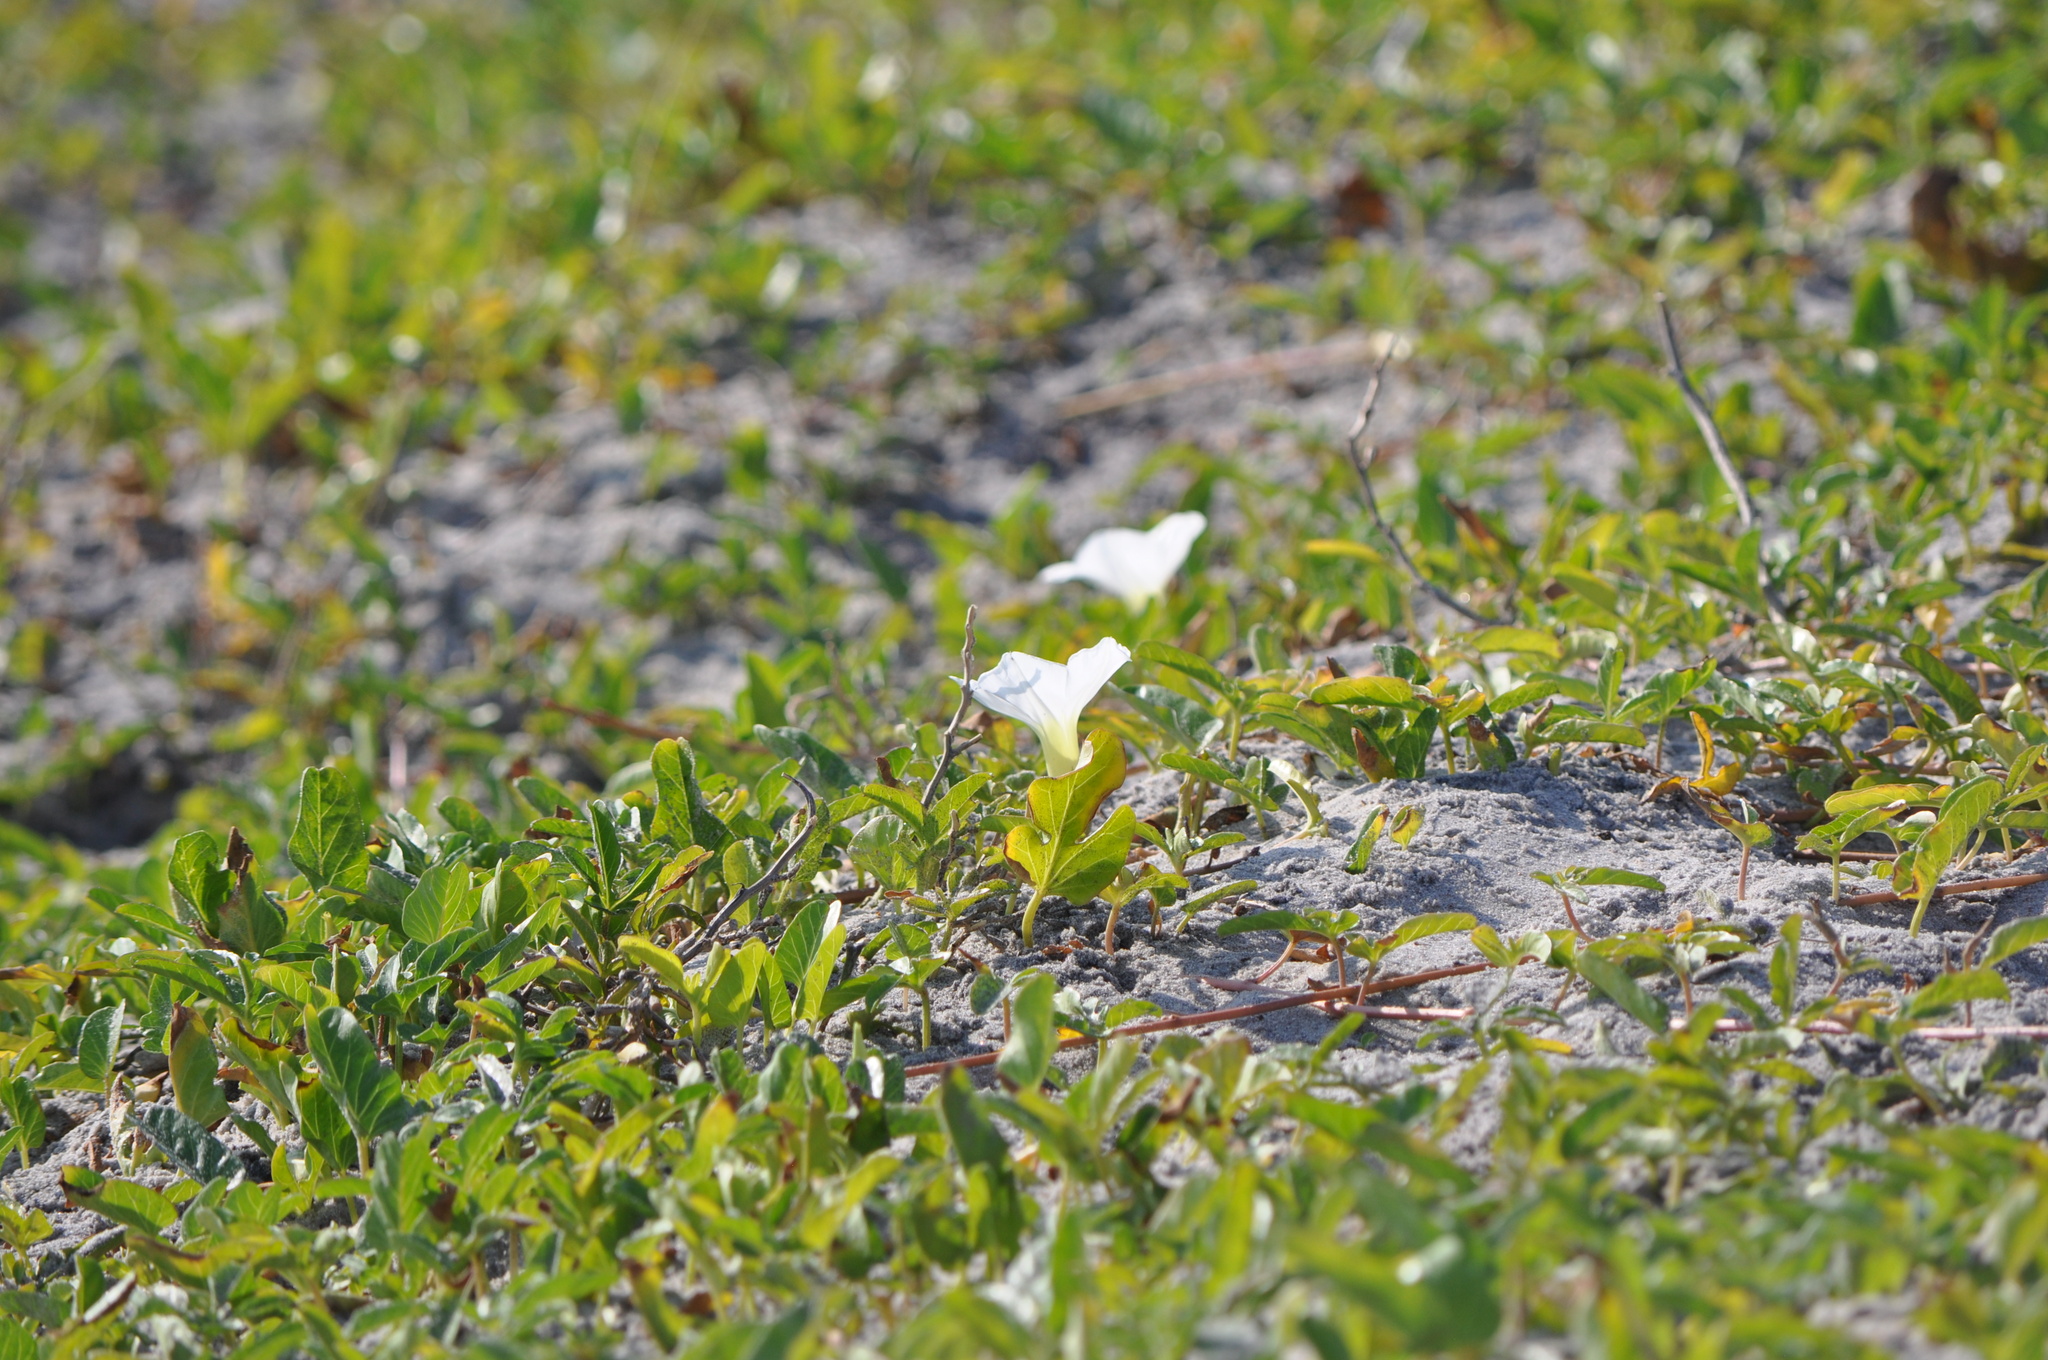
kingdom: Plantae
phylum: Tracheophyta
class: Magnoliopsida
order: Solanales
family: Convolvulaceae
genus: Ipomoea
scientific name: Ipomoea imperati
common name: Fiddle-leaf morning-glory
